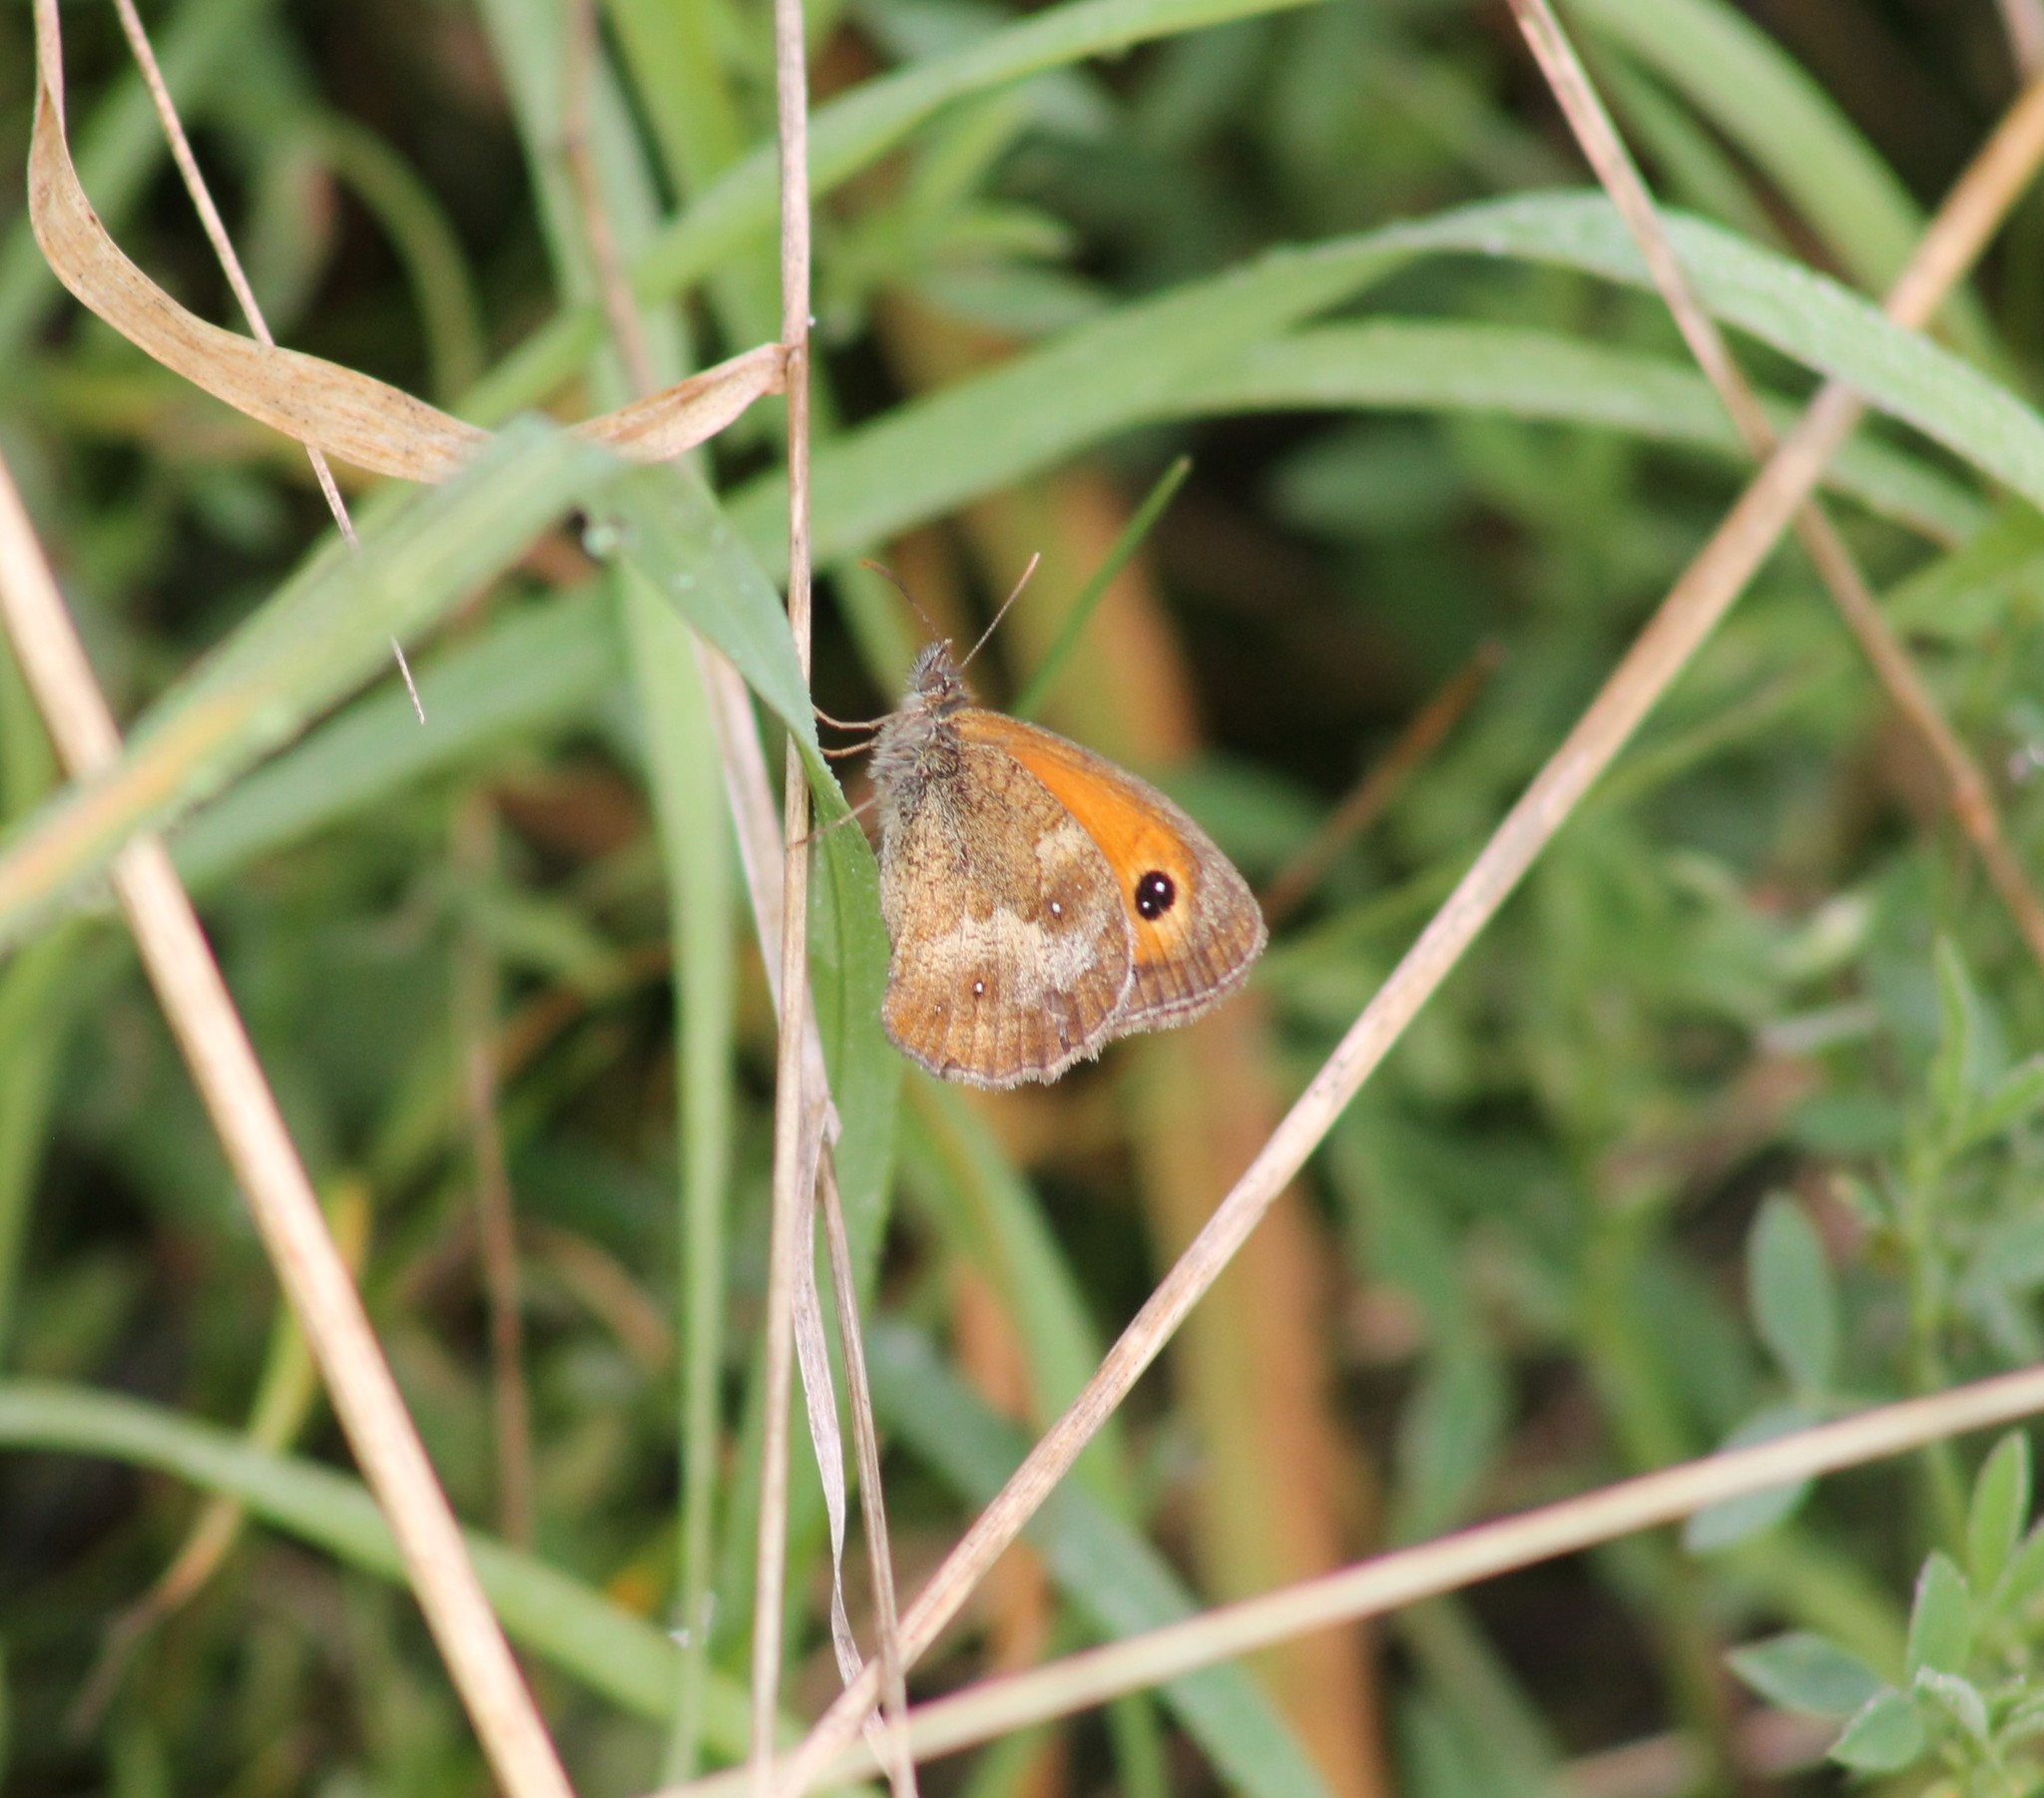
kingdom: Animalia
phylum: Arthropoda
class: Insecta
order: Lepidoptera
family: Nymphalidae
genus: Pyronia
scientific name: Pyronia tithonus
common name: Gatekeeper
